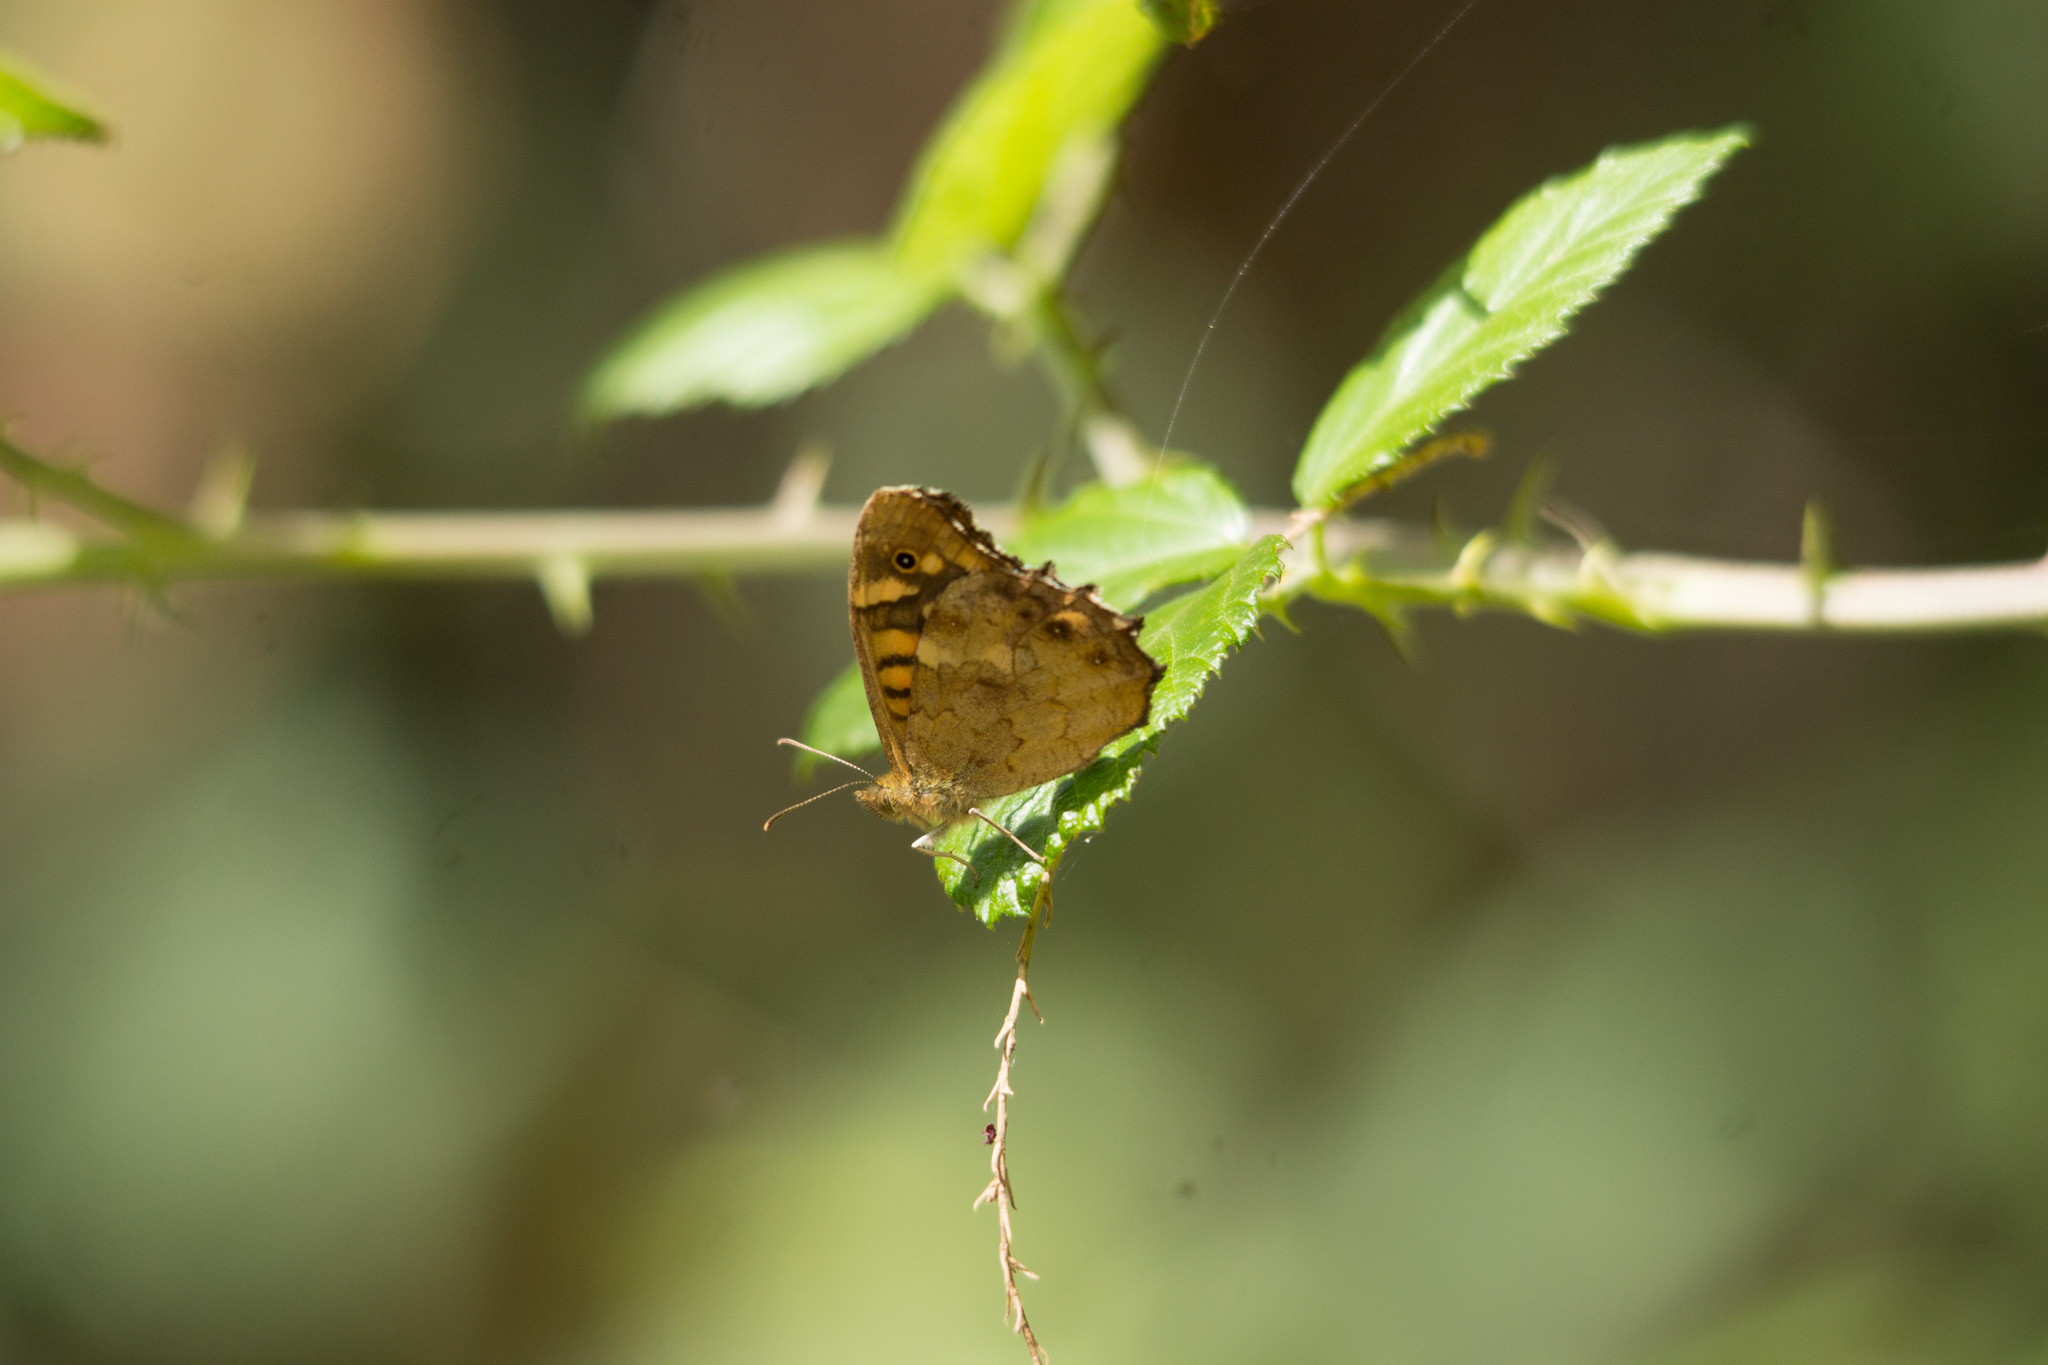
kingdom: Animalia
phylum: Arthropoda
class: Insecta
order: Lepidoptera
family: Nymphalidae
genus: Pararge
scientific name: Pararge aegeria
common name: Speckled wood
